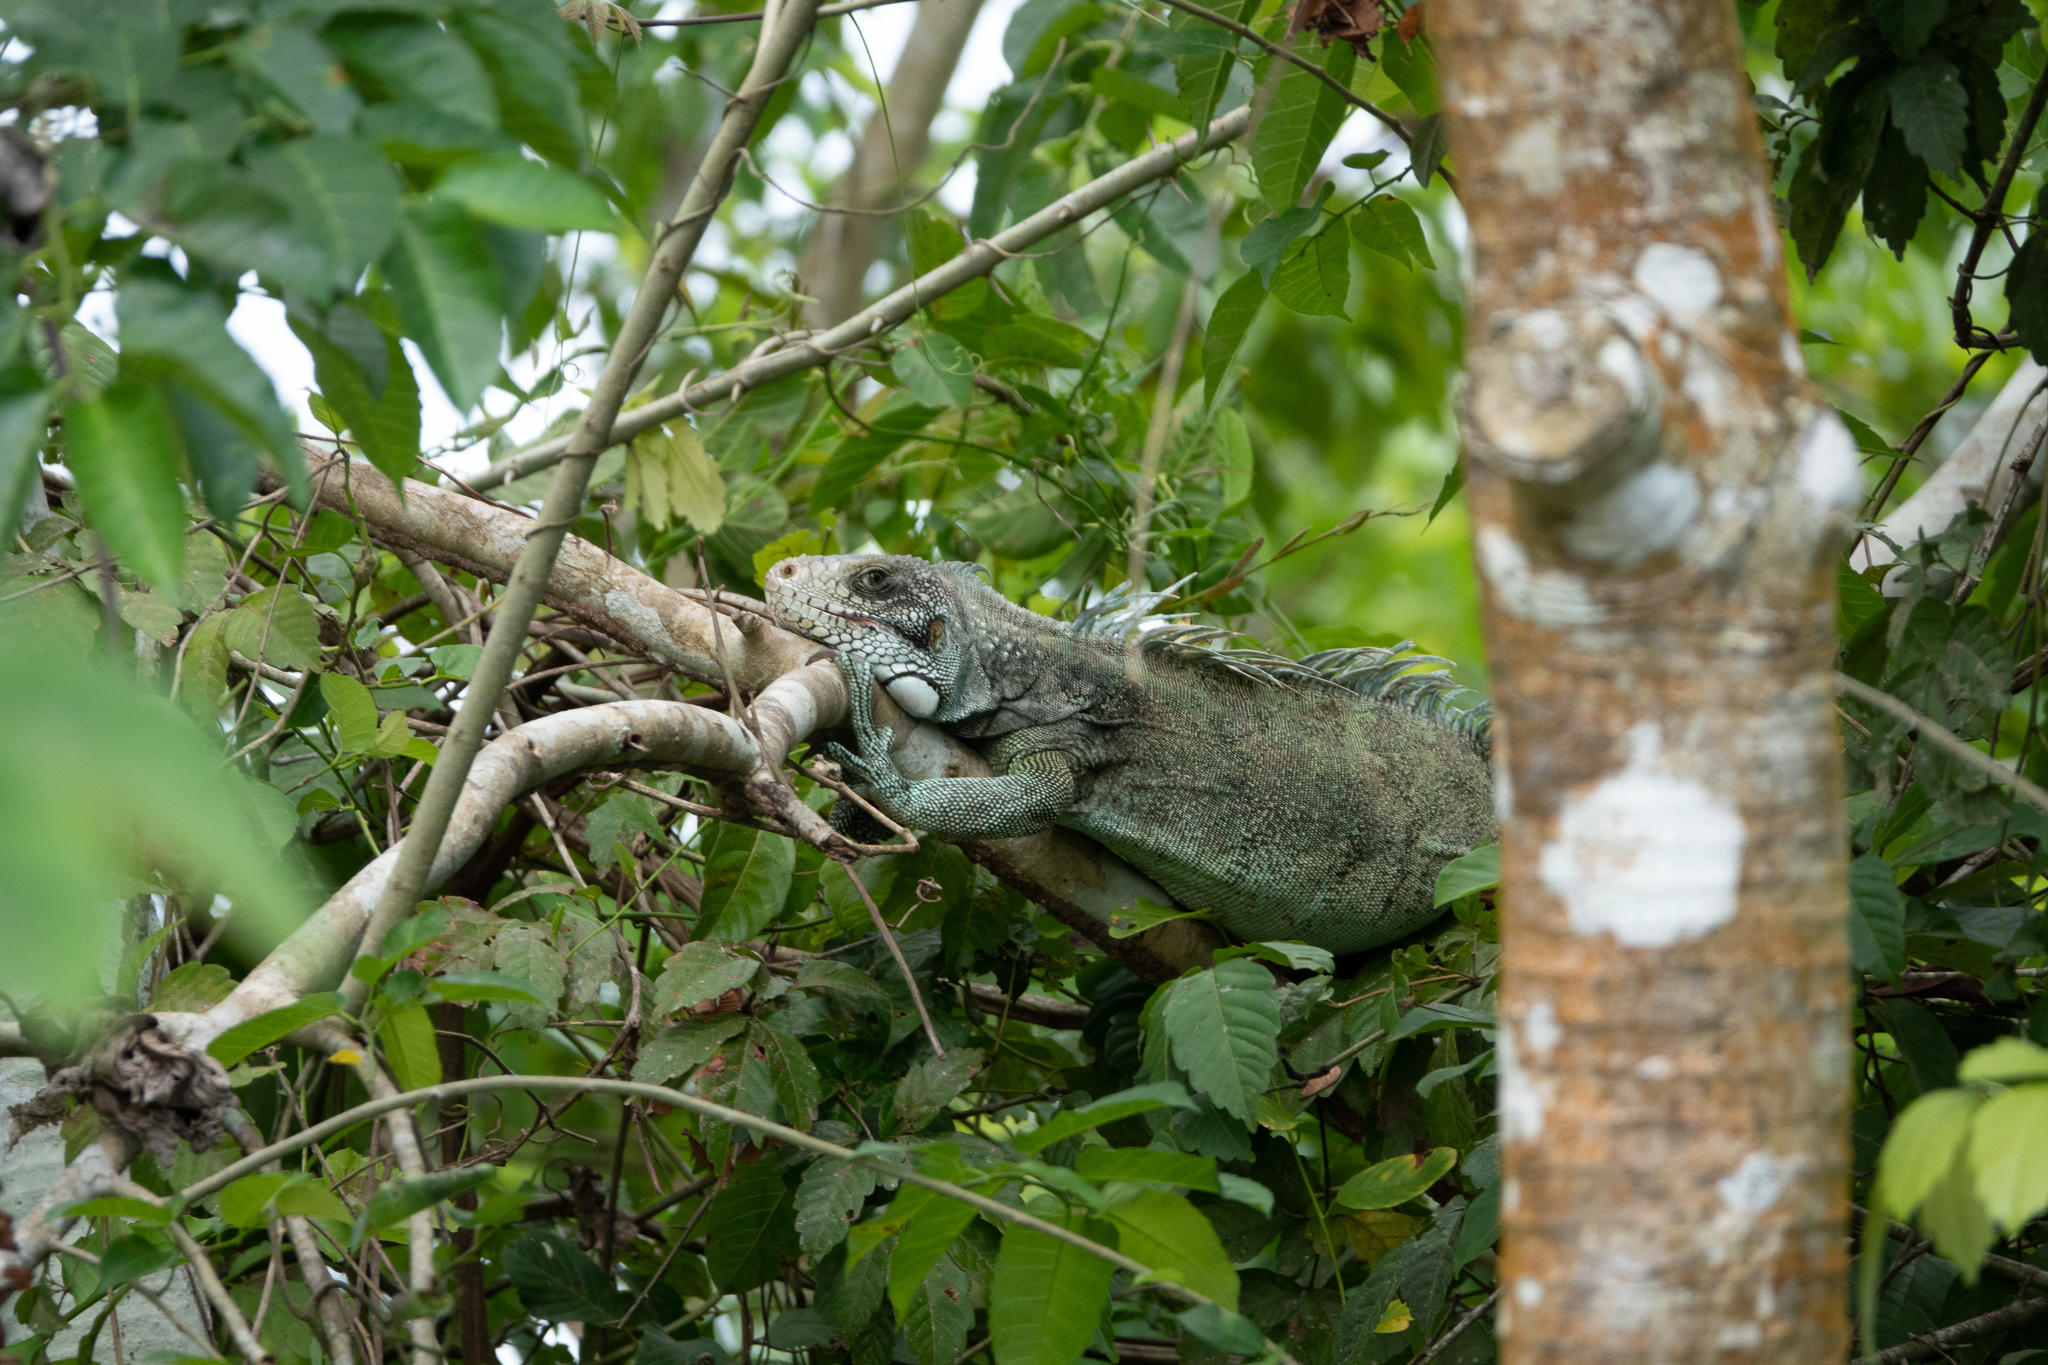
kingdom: Animalia
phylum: Chordata
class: Squamata
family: Iguanidae
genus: Iguana
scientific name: Iguana iguana
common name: Green iguana
